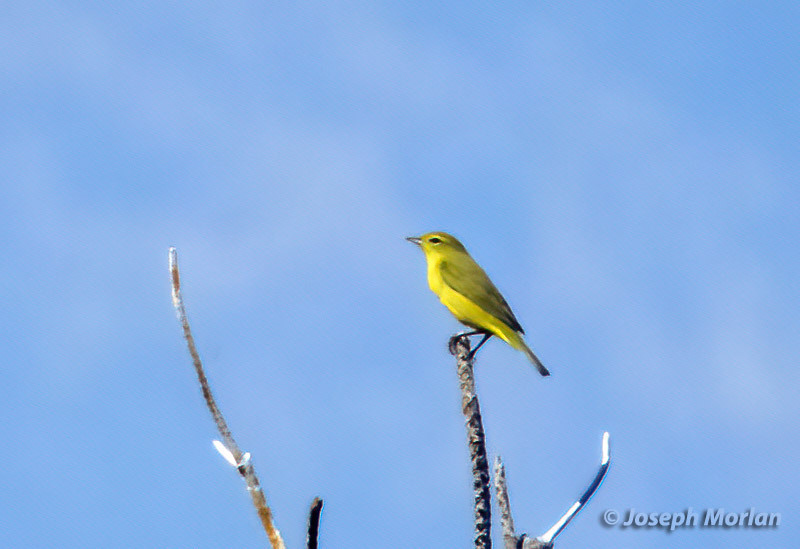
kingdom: Animalia
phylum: Chordata
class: Aves
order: Passeriformes
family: Parulidae
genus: Leiothlypis
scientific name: Leiothlypis celata
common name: Orange-crowned warbler
